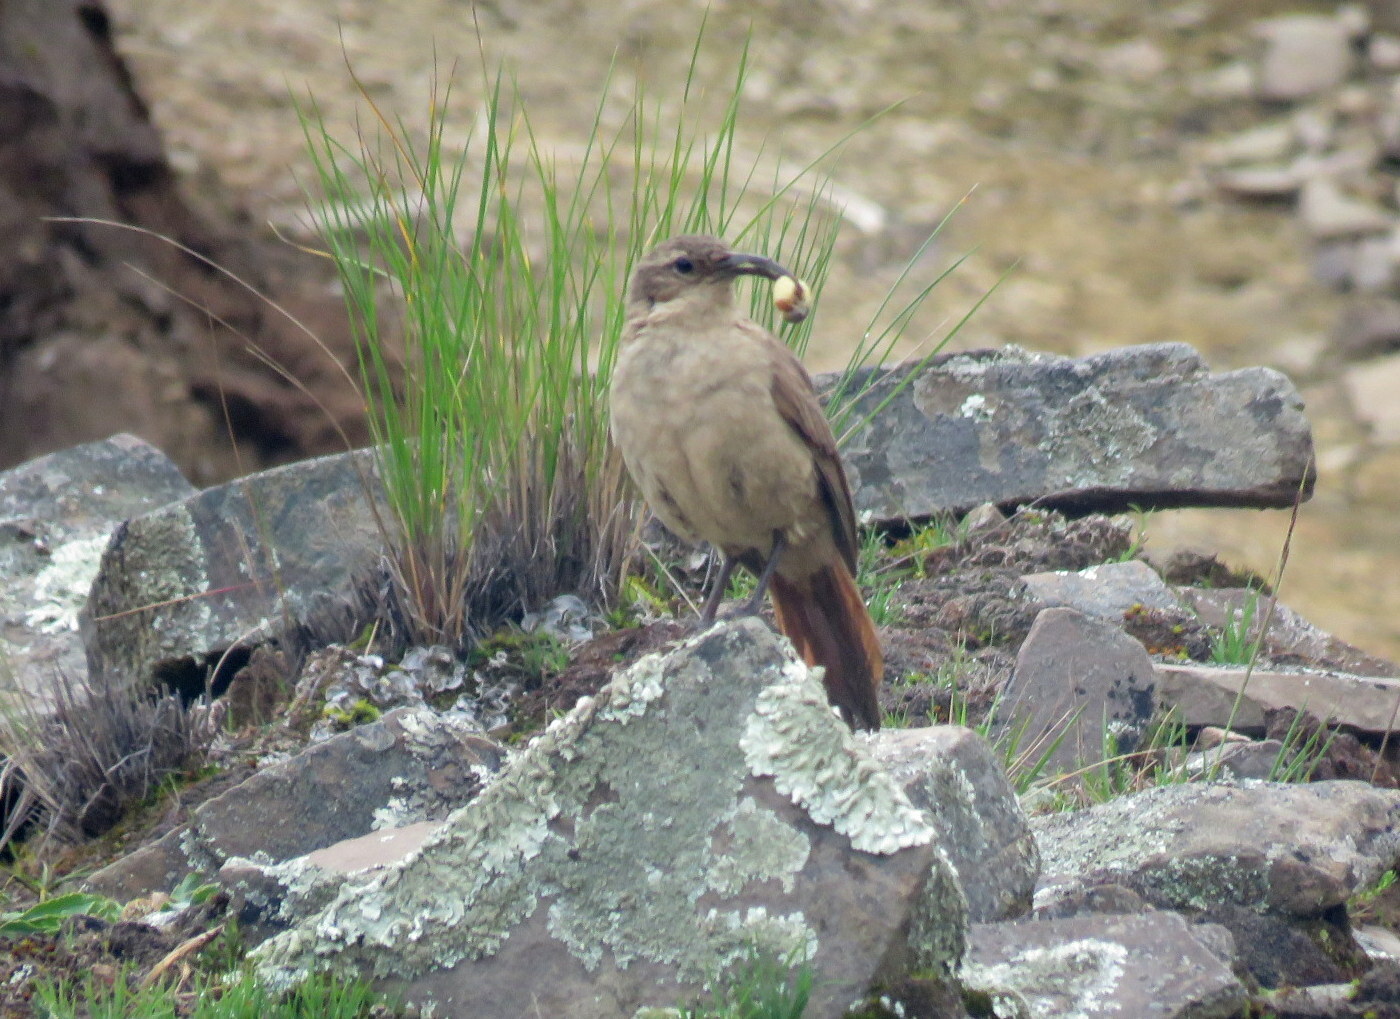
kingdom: Animalia
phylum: Chordata
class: Aves
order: Passeriformes
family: Furnariidae
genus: Upucerthia
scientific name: Upucerthia validirostris
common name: Buff-breasted earthcreeper
